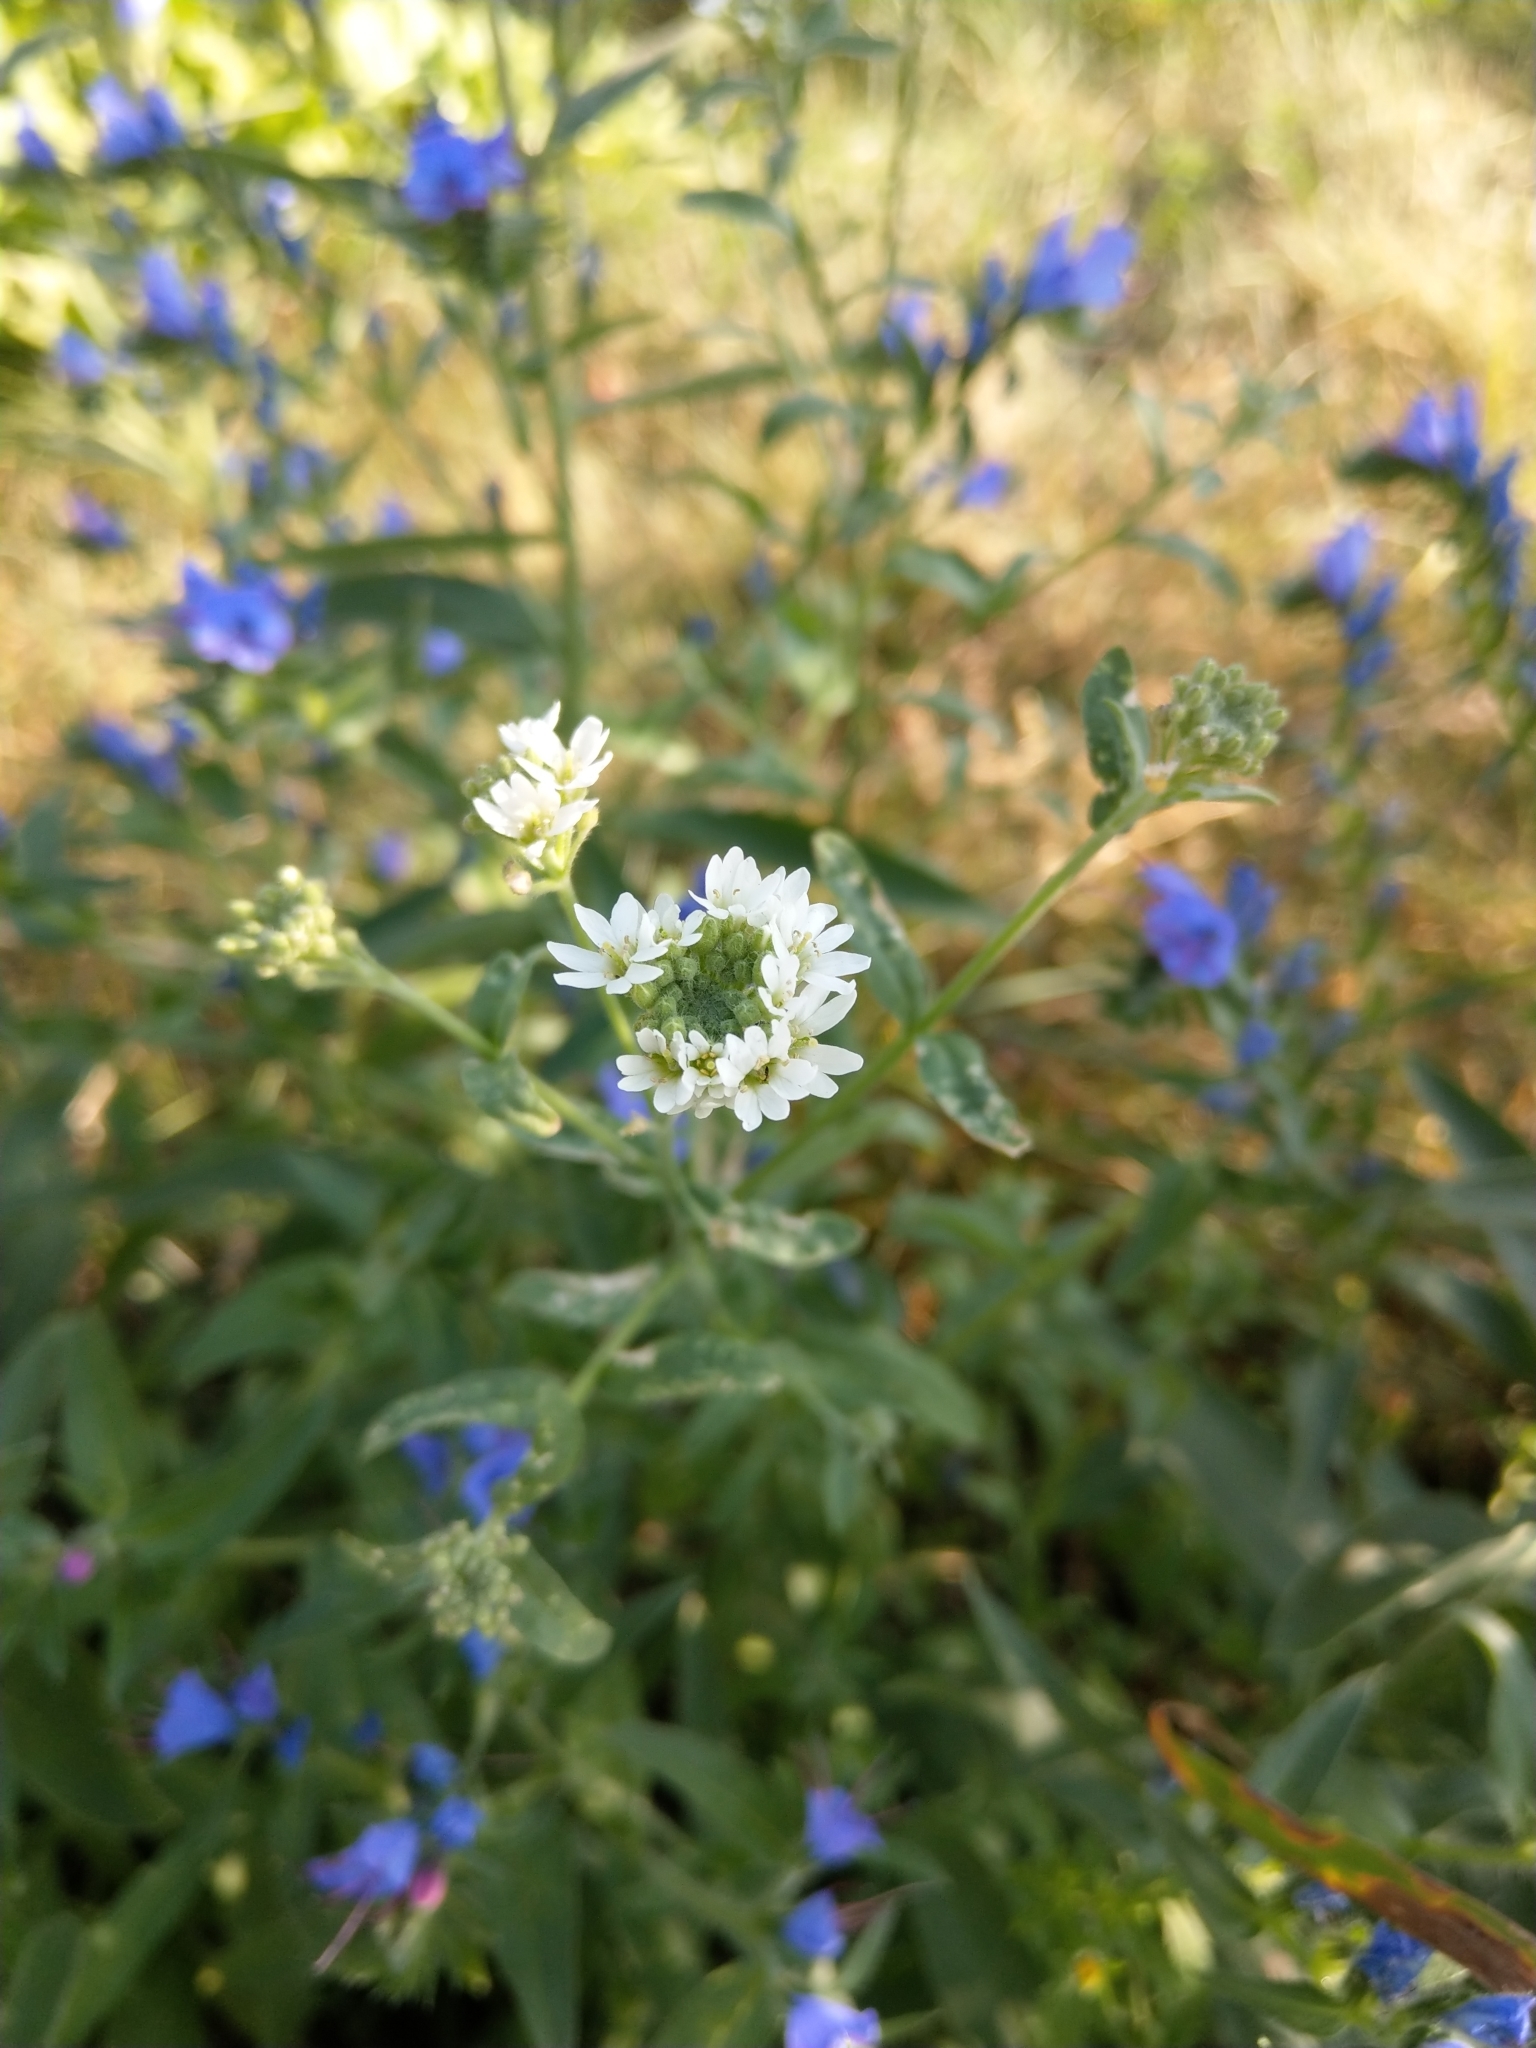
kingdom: Plantae
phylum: Tracheophyta
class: Magnoliopsida
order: Brassicales
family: Brassicaceae
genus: Berteroa
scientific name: Berteroa incana
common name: Hoary alison
